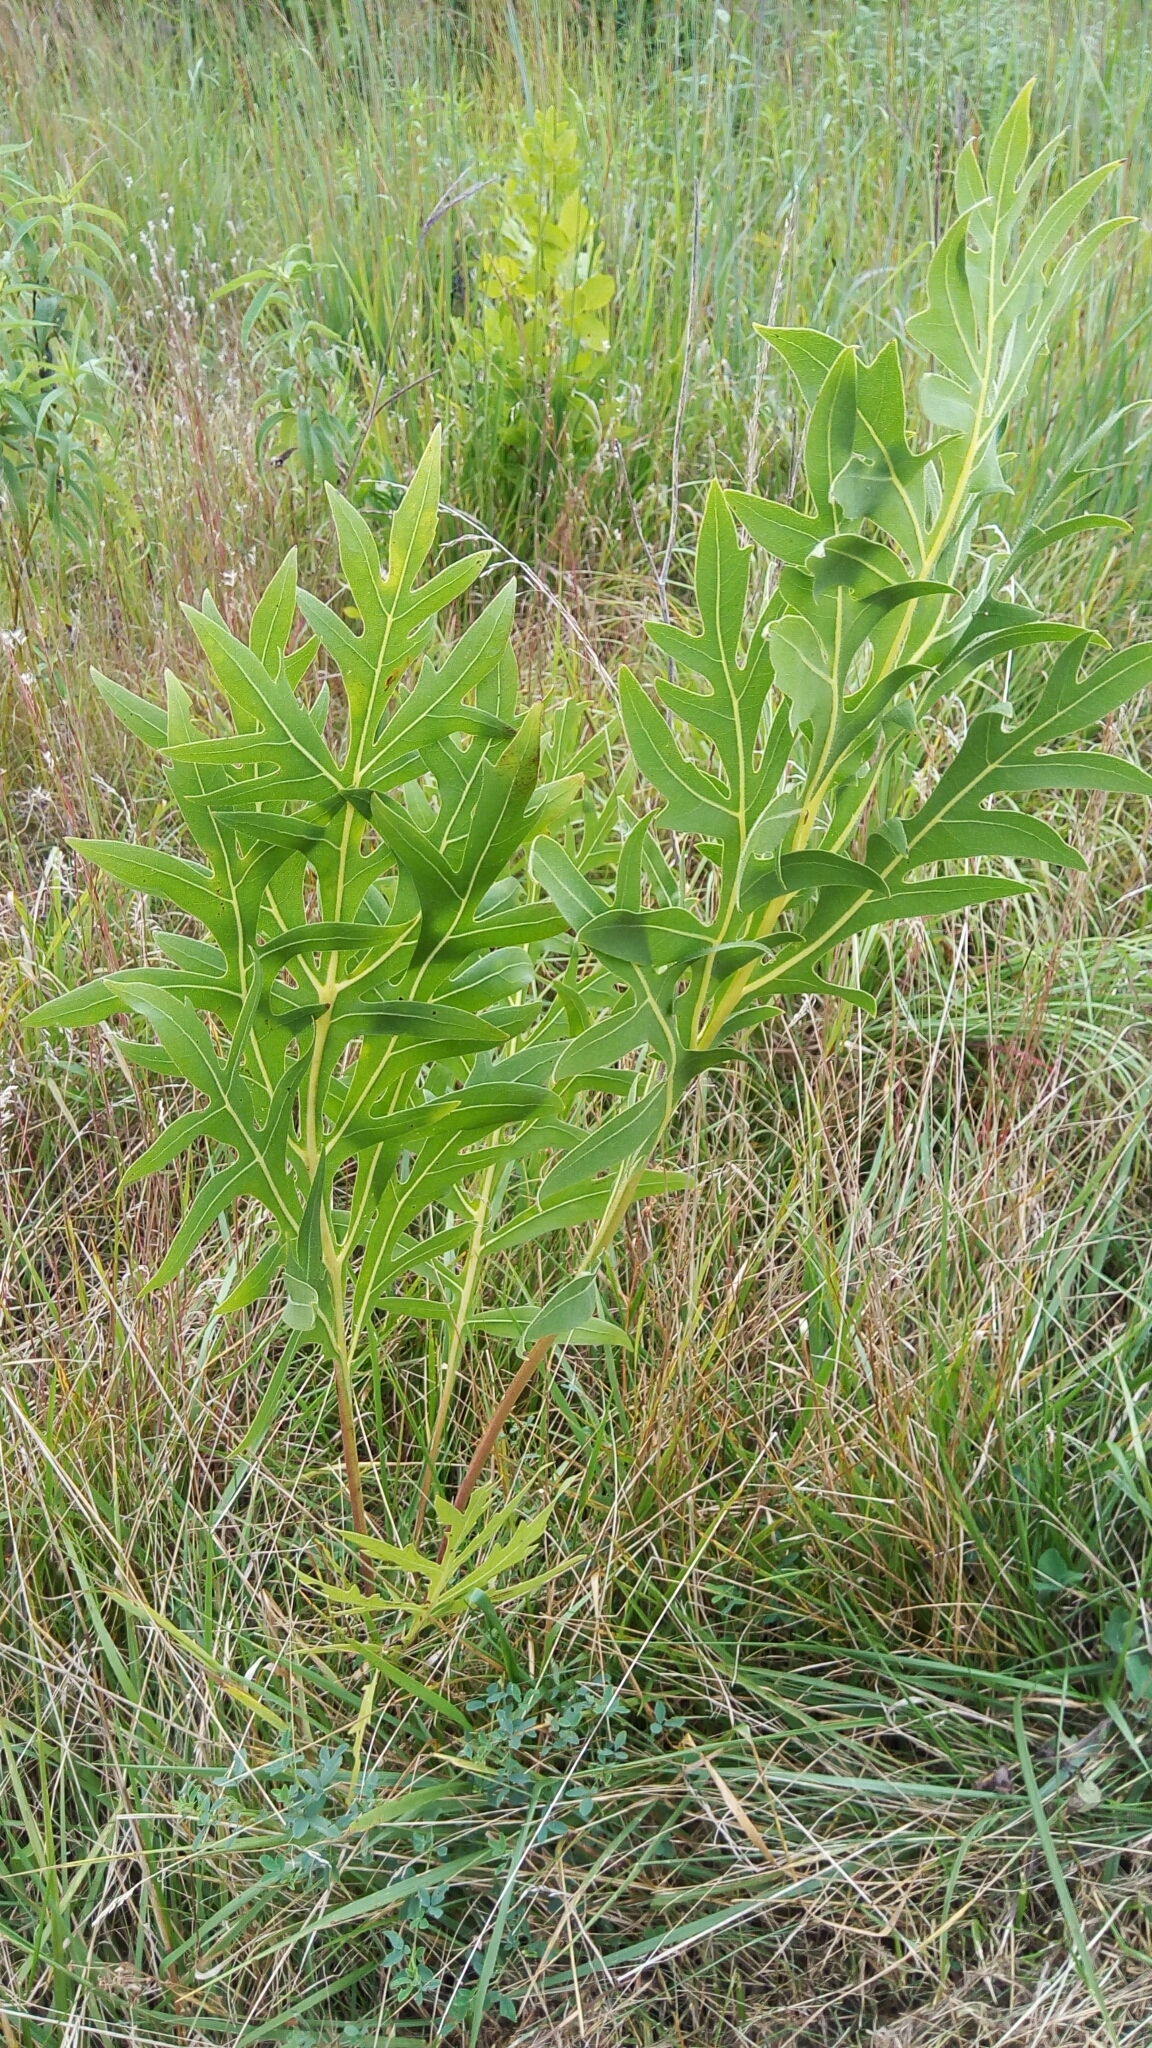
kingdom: Plantae
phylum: Tracheophyta
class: Magnoliopsida
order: Asterales
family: Asteraceae
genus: Silphium
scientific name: Silphium laciniatum
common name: Polarplant
